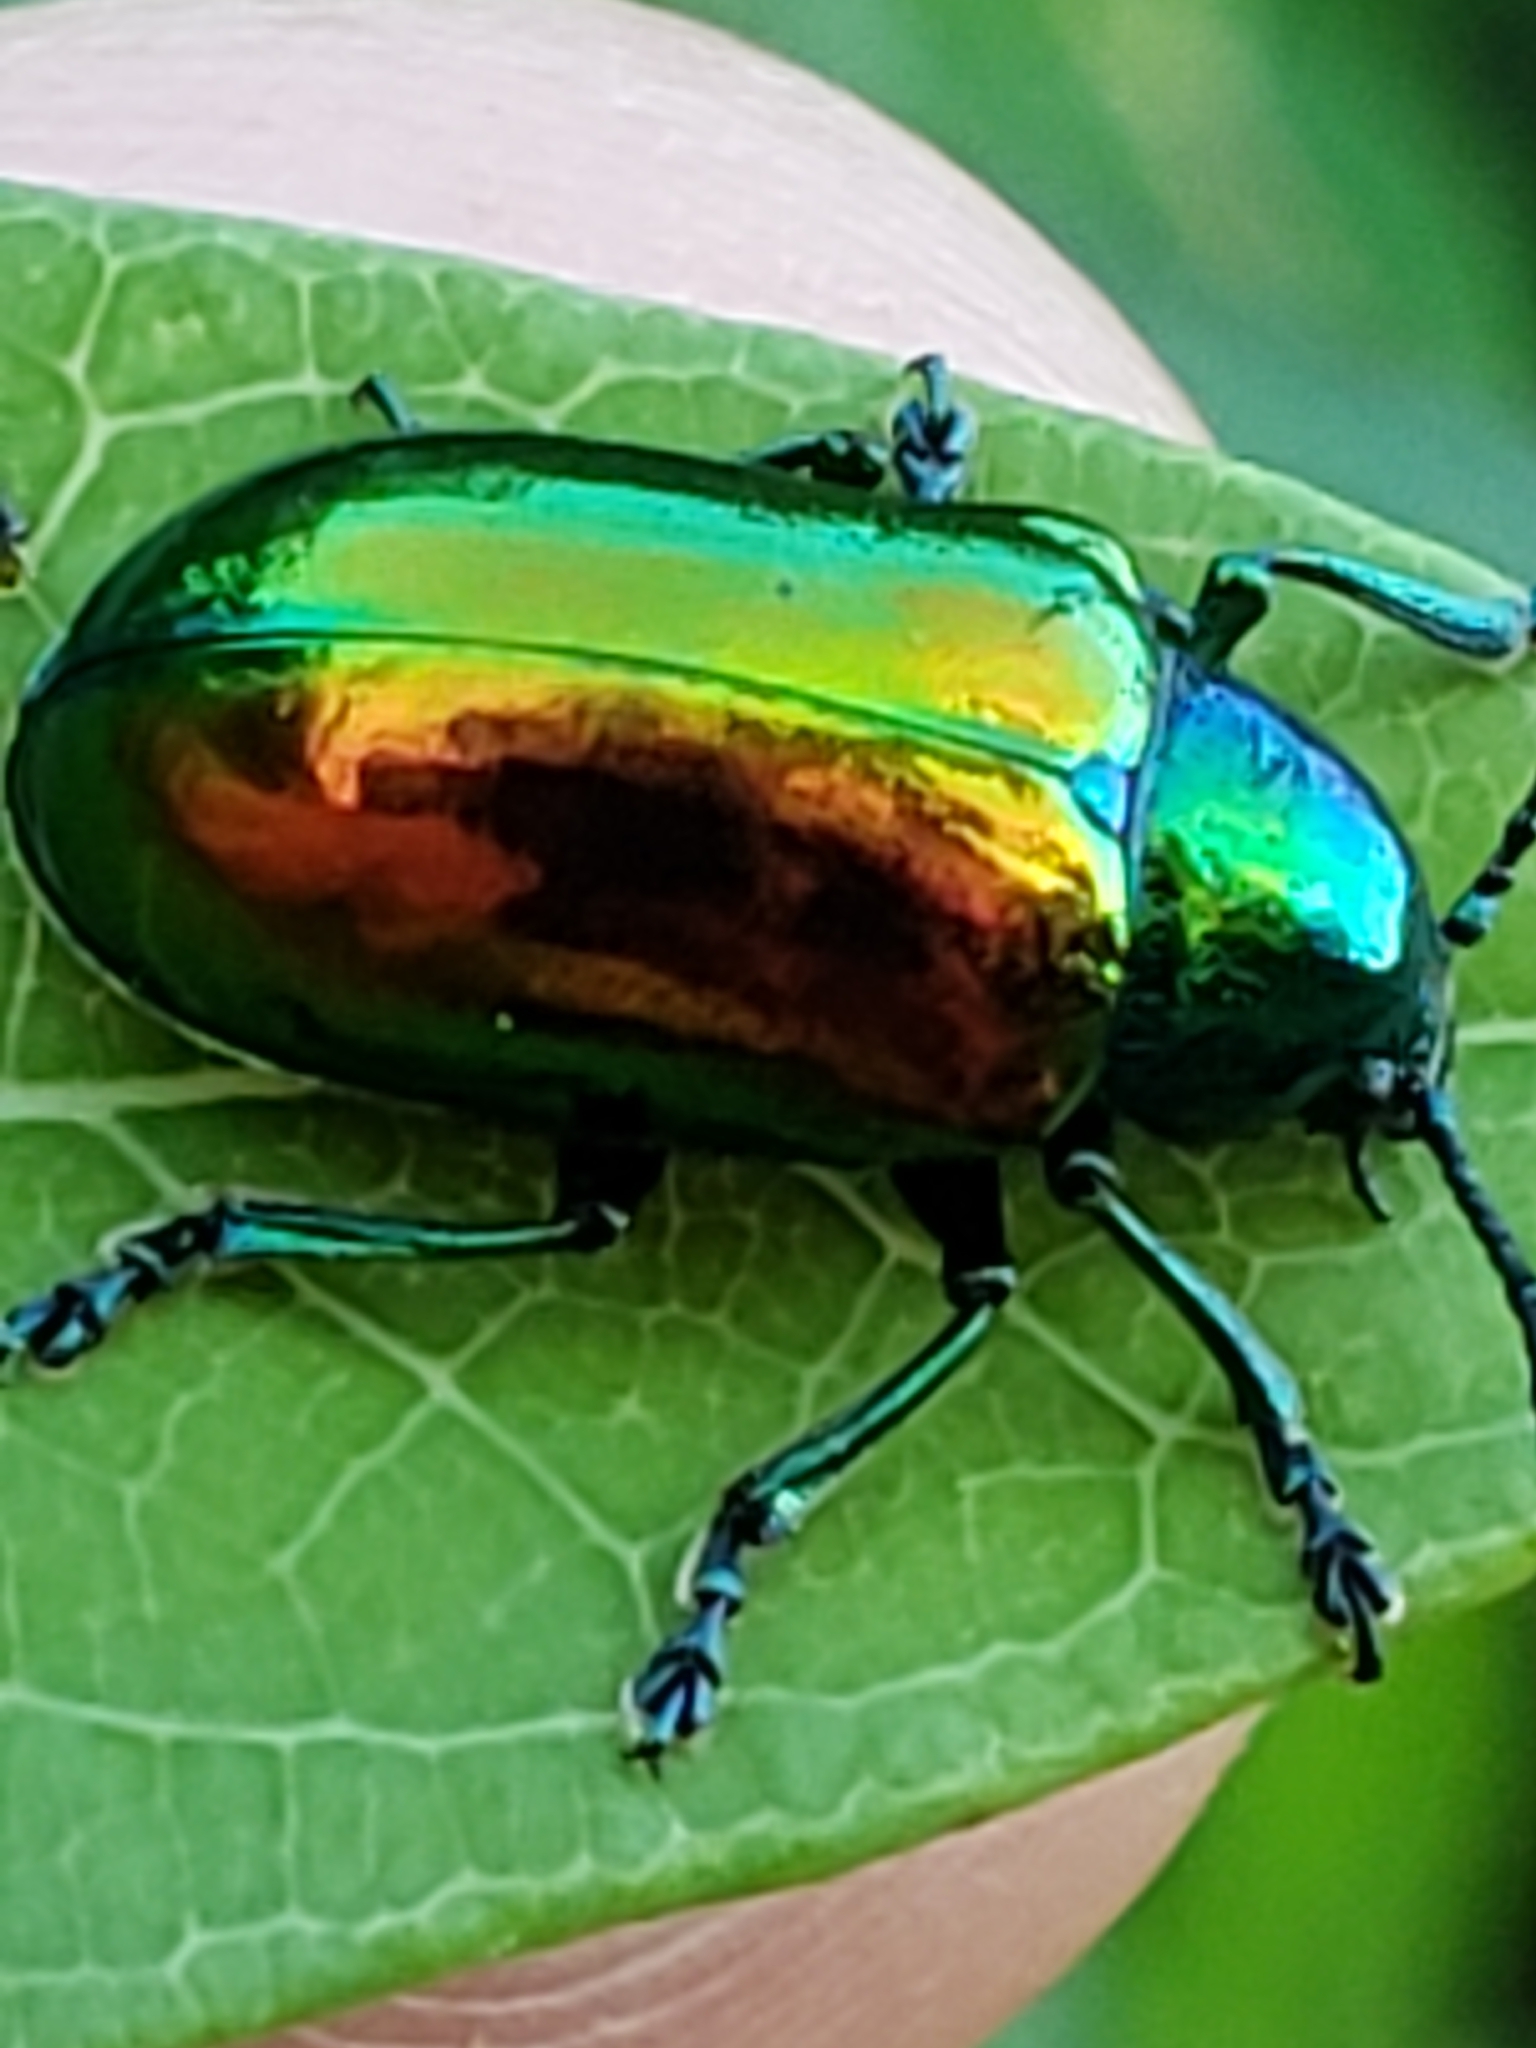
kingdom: Animalia
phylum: Arthropoda
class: Insecta
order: Coleoptera
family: Chrysomelidae
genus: Chrysochus
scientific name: Chrysochus auratus
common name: Dogbane leaf beetle
